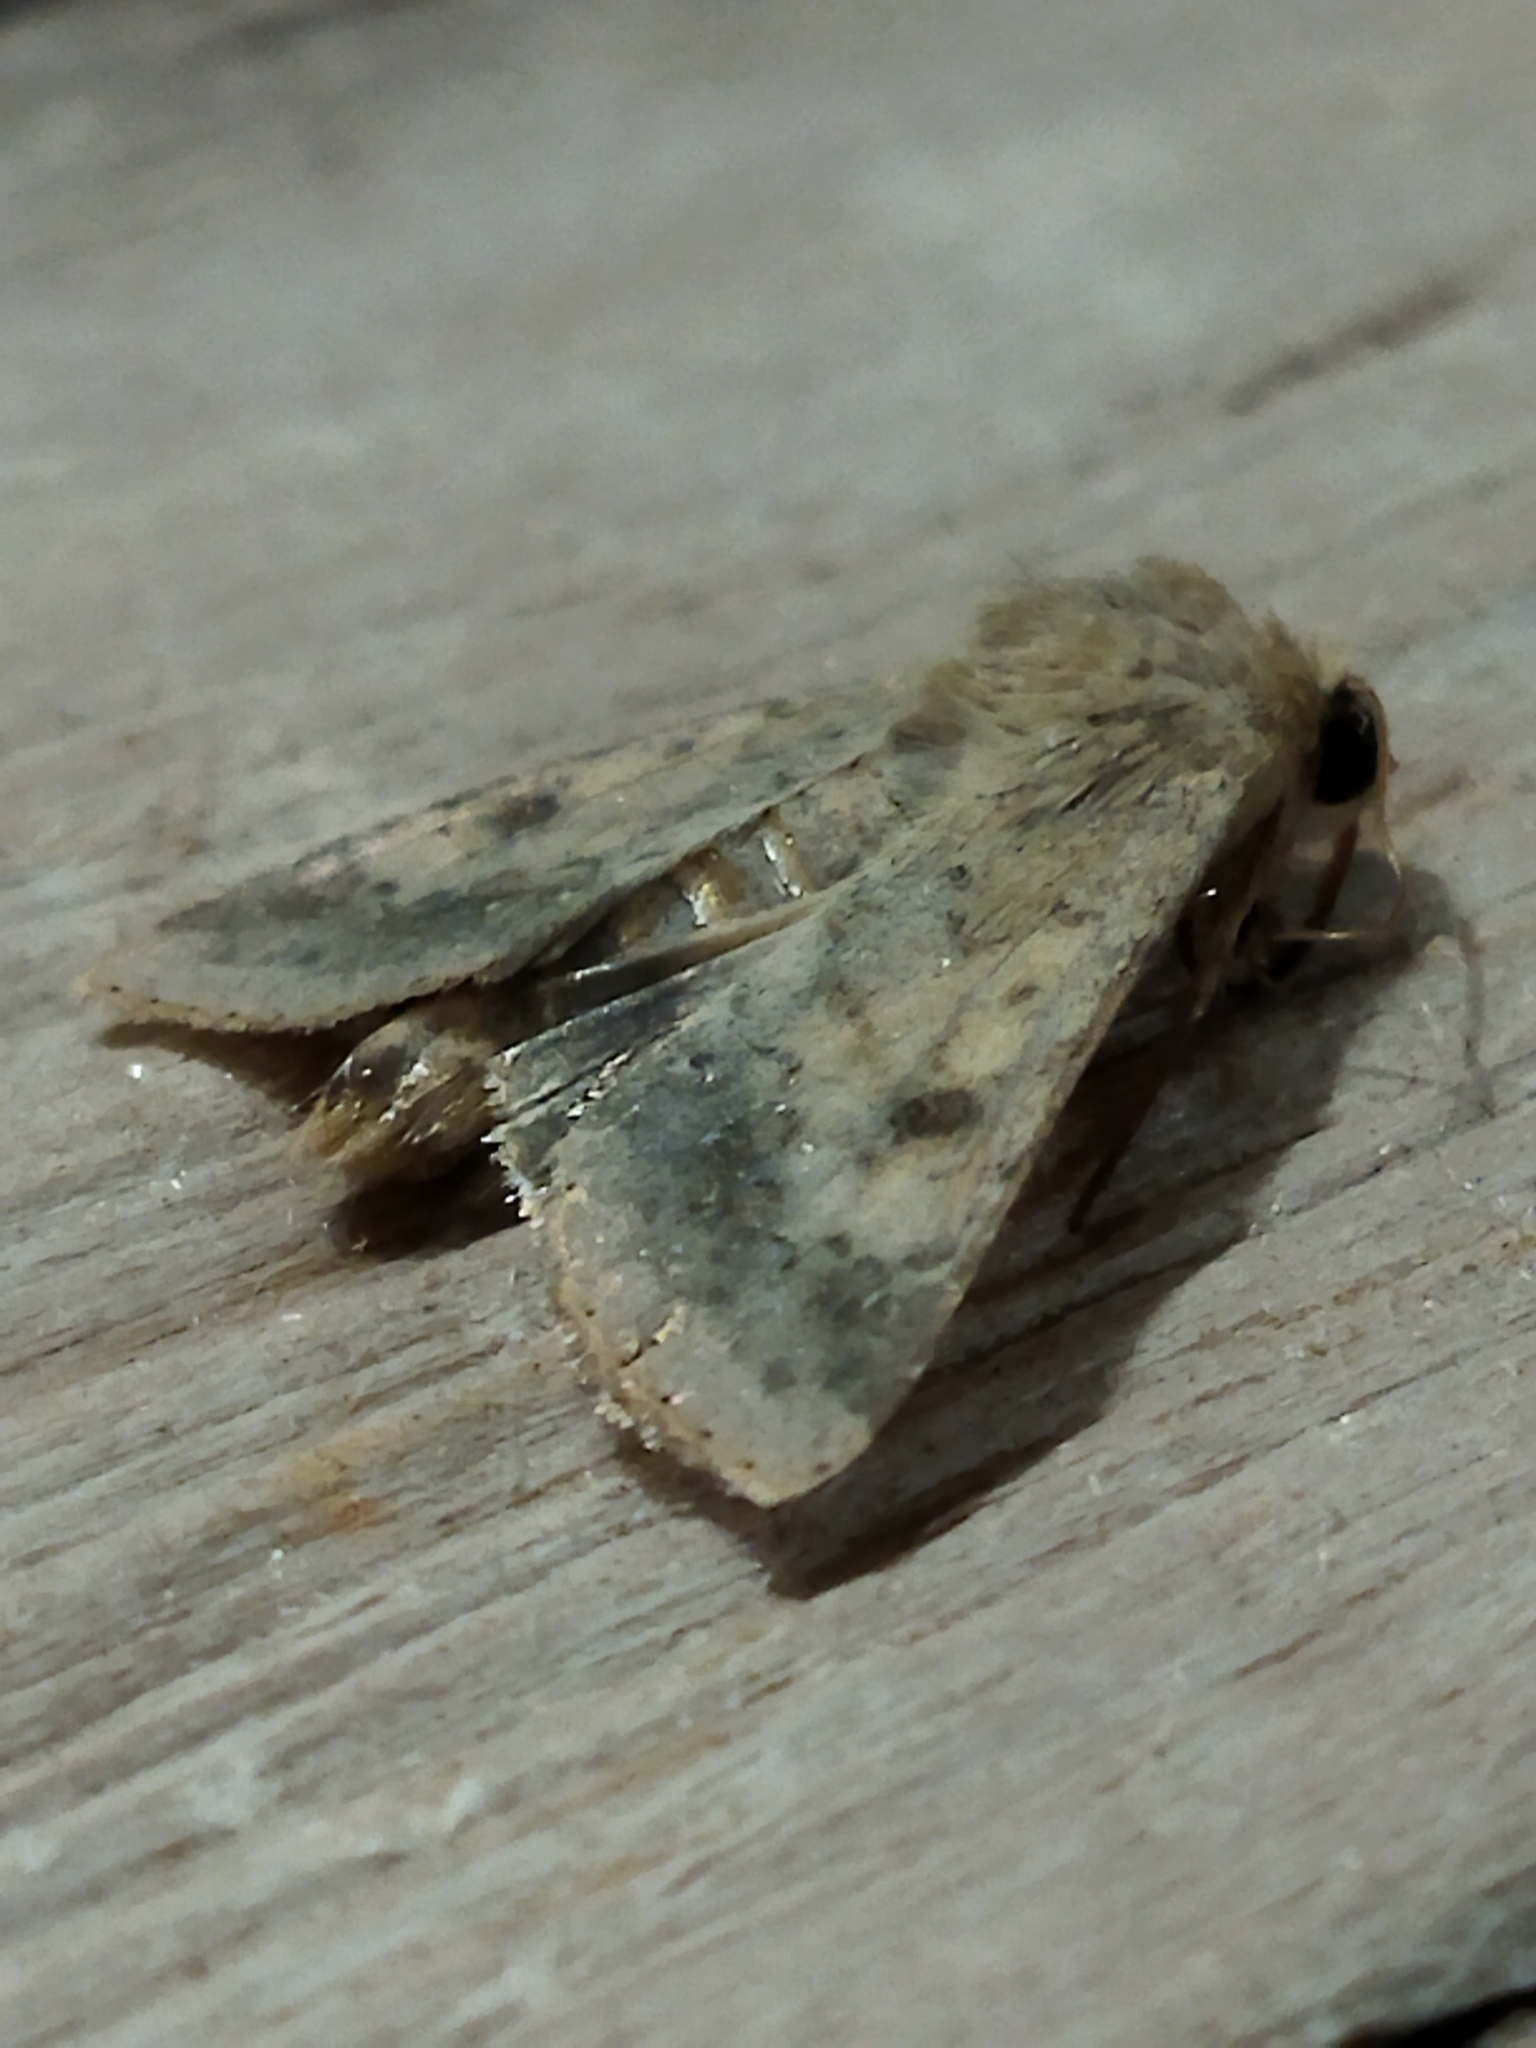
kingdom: Animalia
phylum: Arthropoda
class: Insecta
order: Lepidoptera
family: Noctuidae
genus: Helicoverpa
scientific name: Helicoverpa armigera
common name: Cotton bollworm
